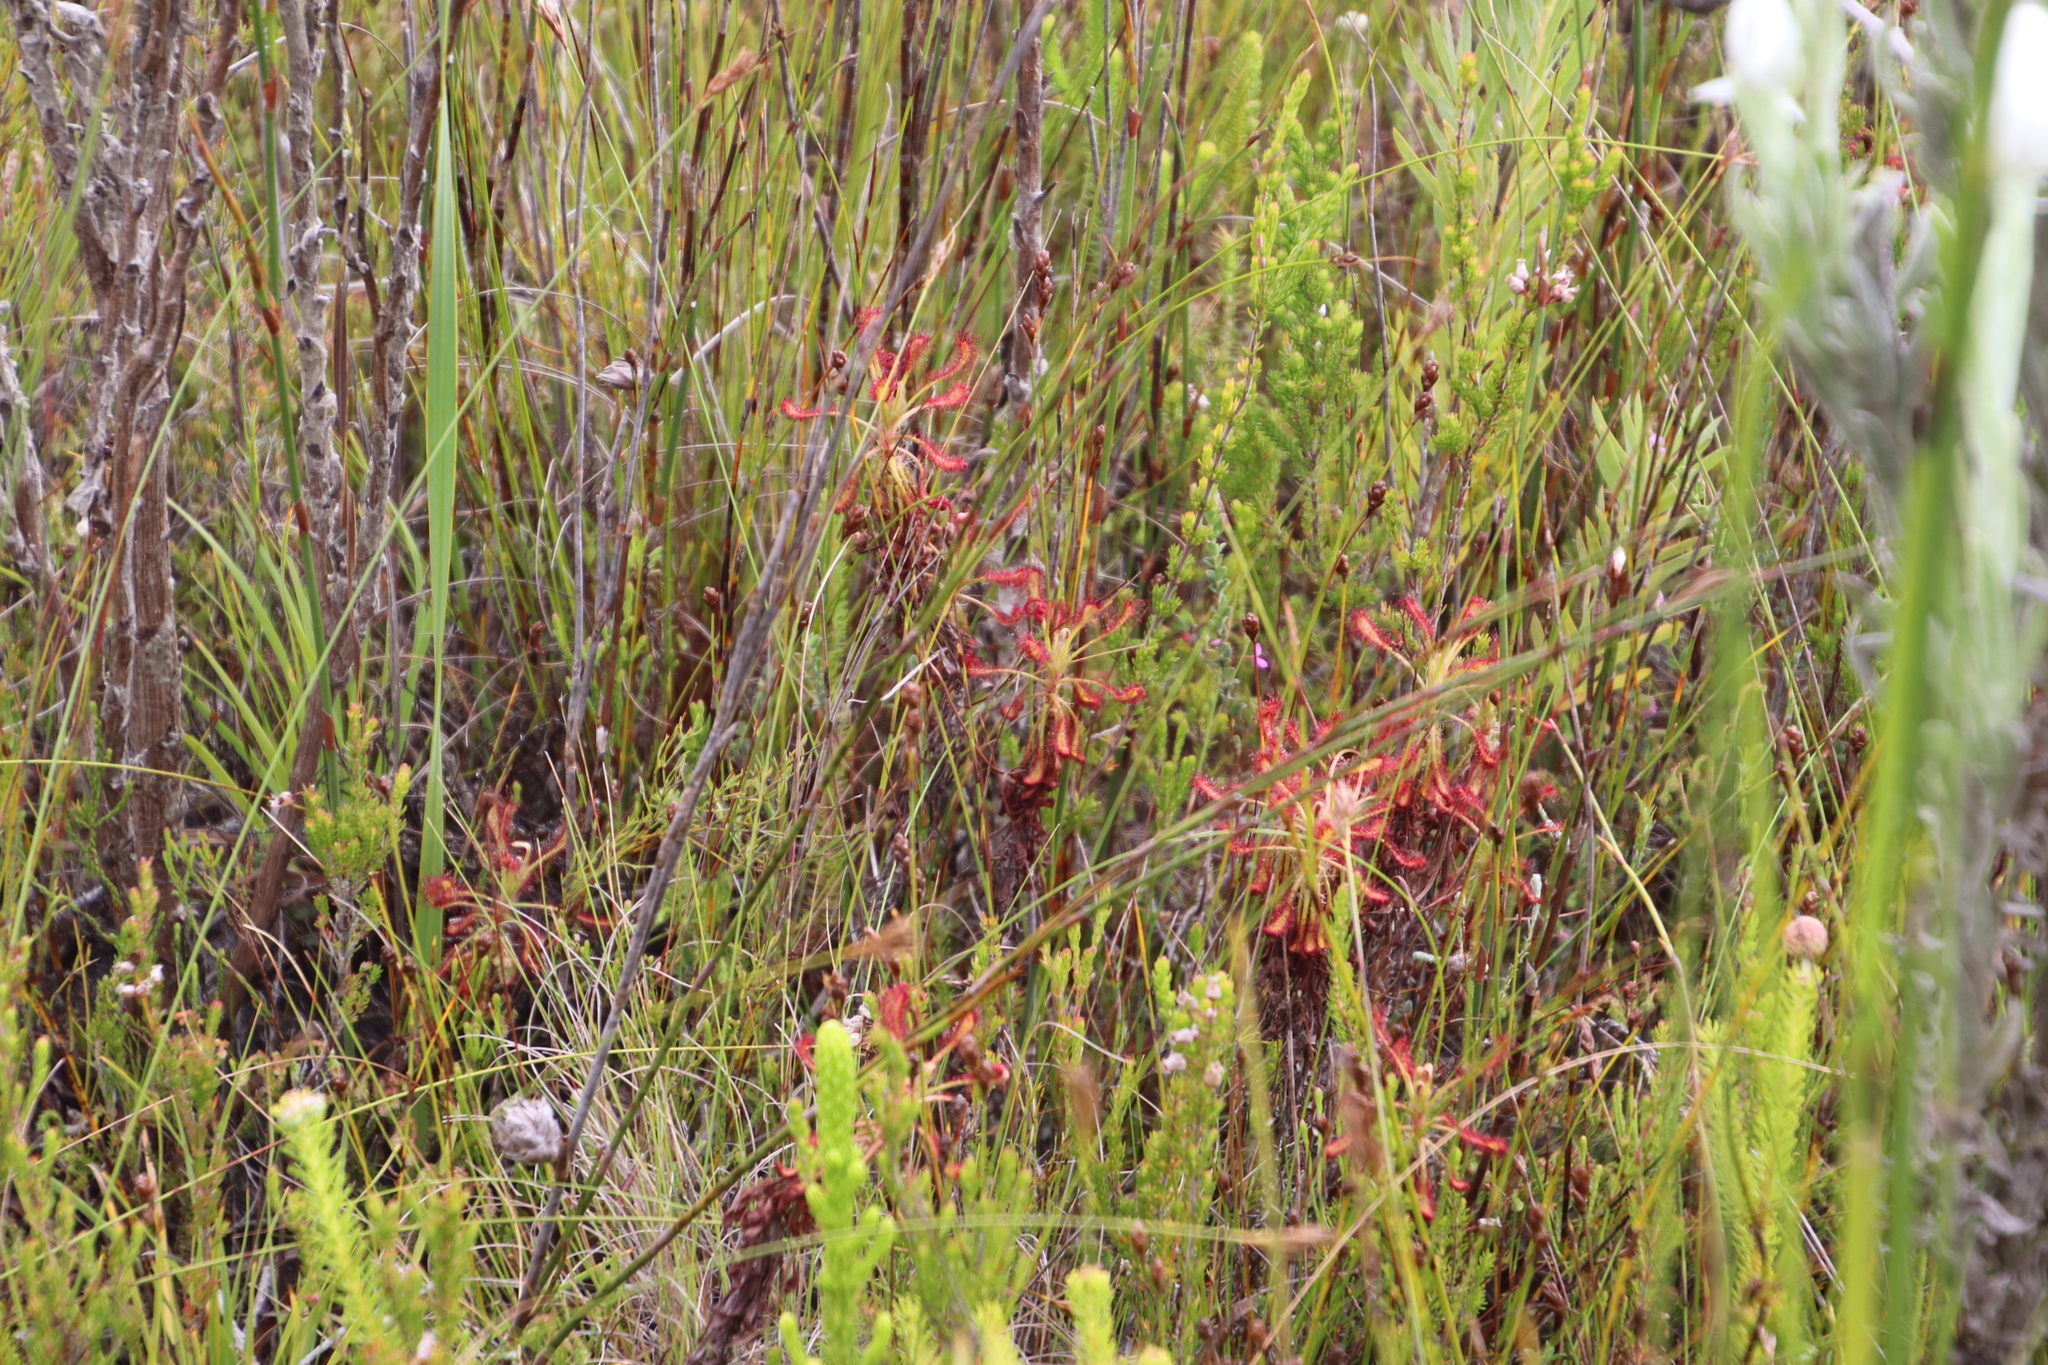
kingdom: Plantae
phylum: Tracheophyta
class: Magnoliopsida
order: Caryophyllales
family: Droseraceae
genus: Drosera
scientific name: Drosera glabripes
